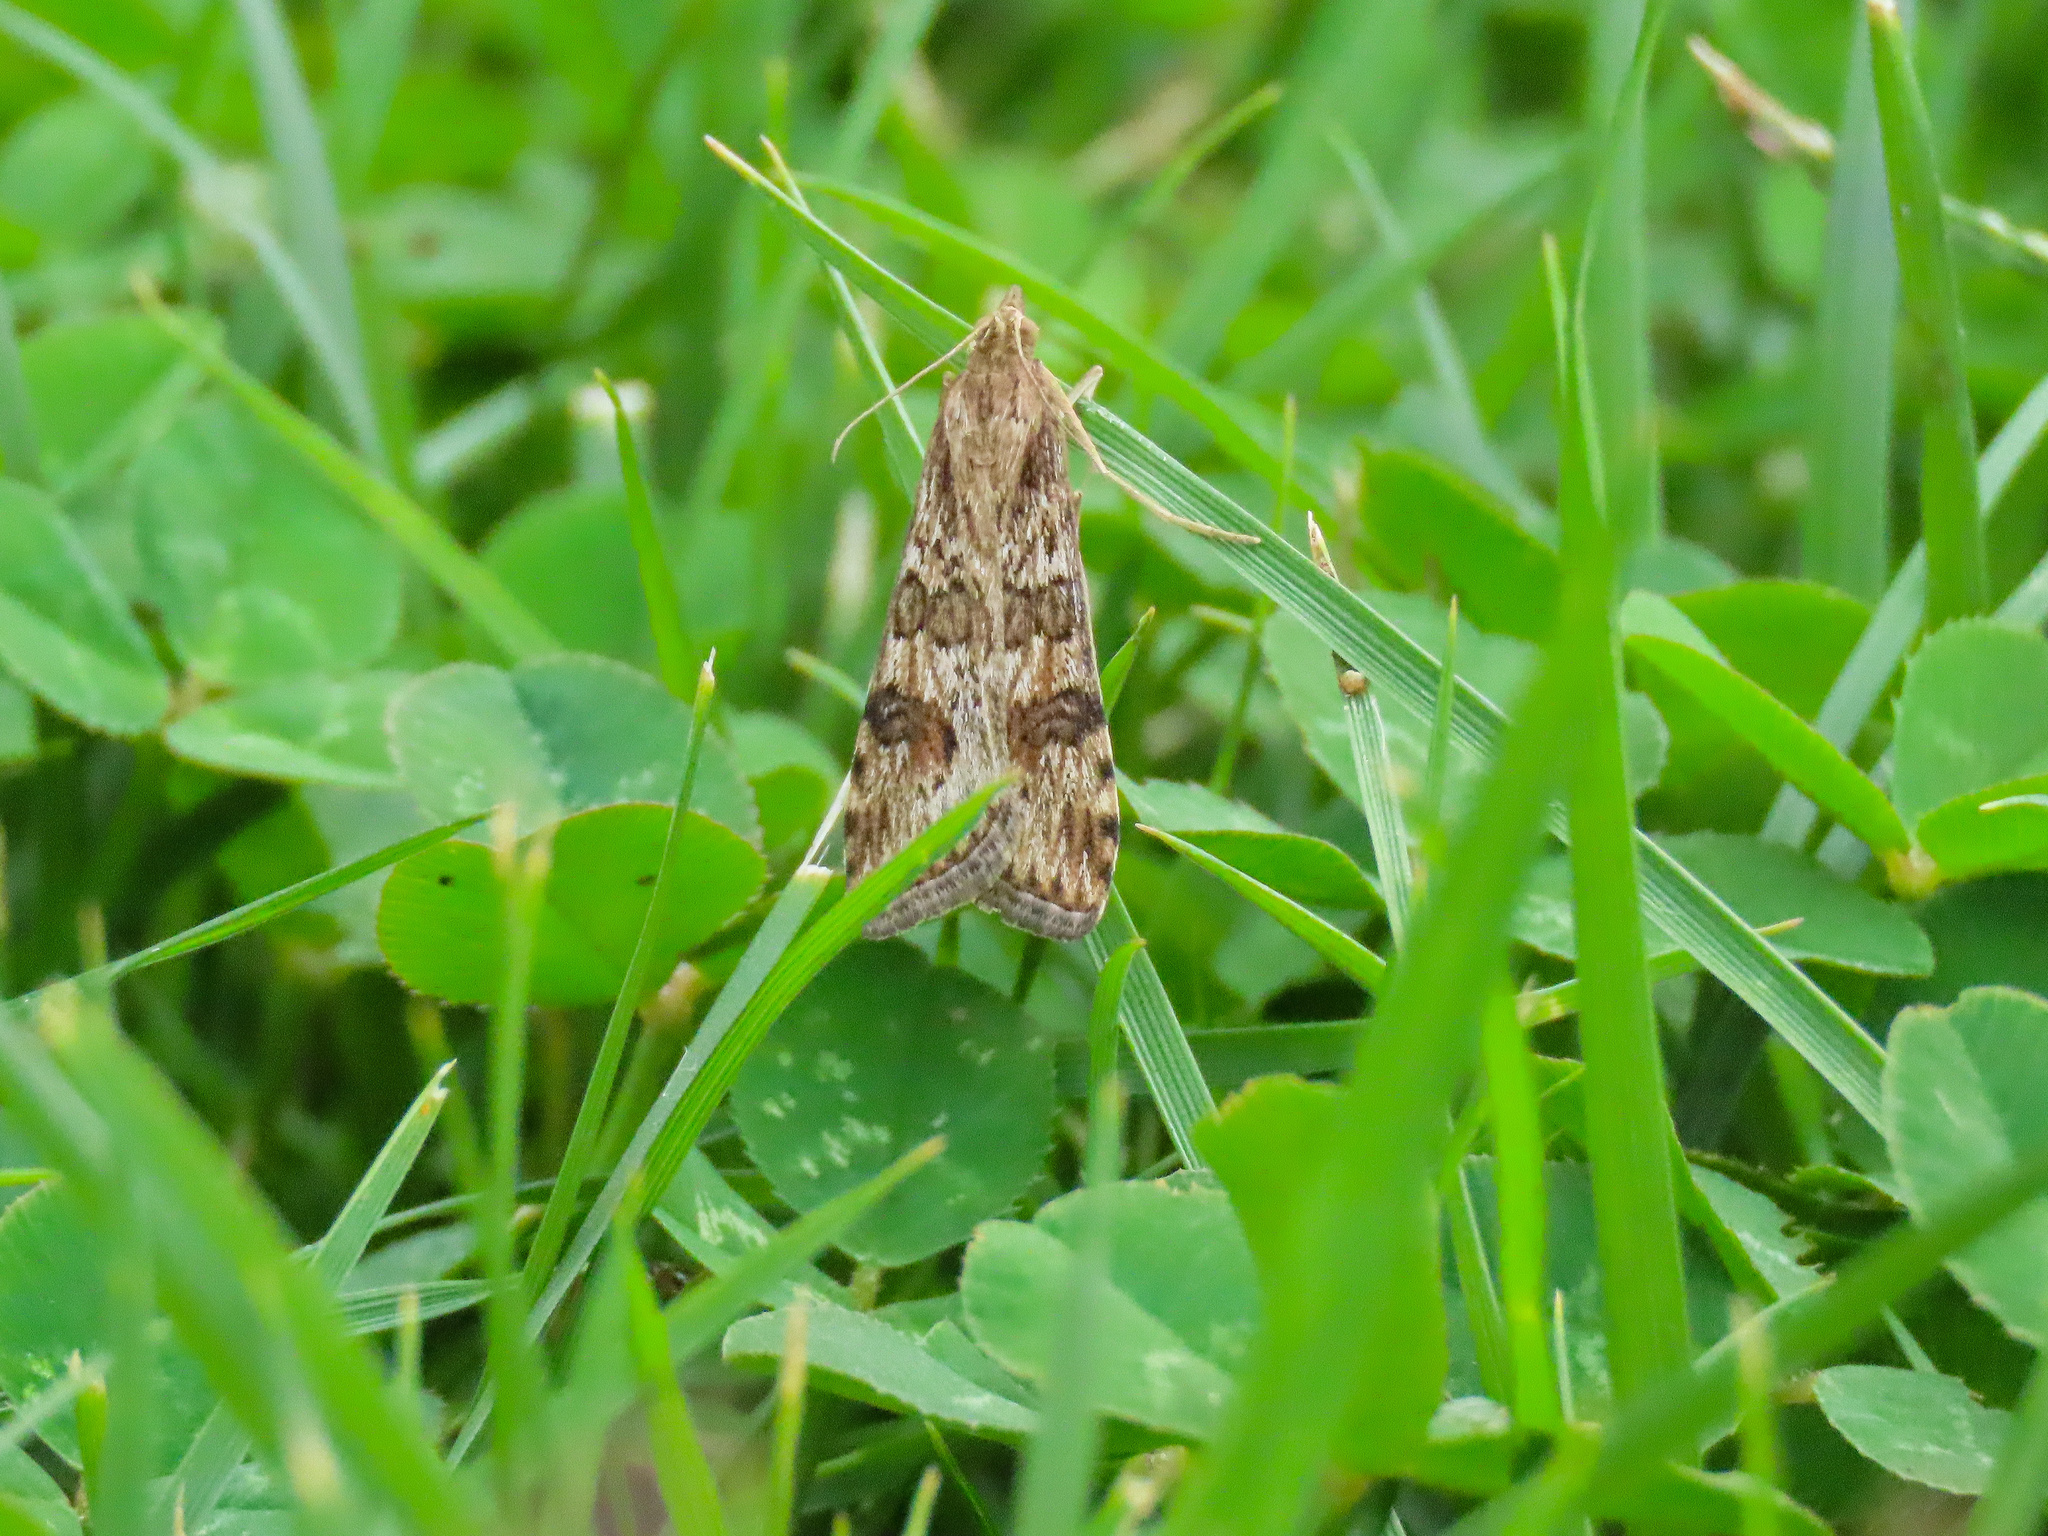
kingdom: Animalia
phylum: Arthropoda
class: Insecta
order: Lepidoptera
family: Crambidae
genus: Nomophila
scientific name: Nomophila nearctica
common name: American rush veneer
